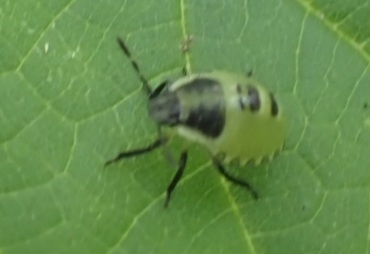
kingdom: Animalia
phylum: Arthropoda
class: Insecta
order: Hemiptera
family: Pentatomidae
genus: Palomena
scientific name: Palomena prasina
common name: Green shieldbug
